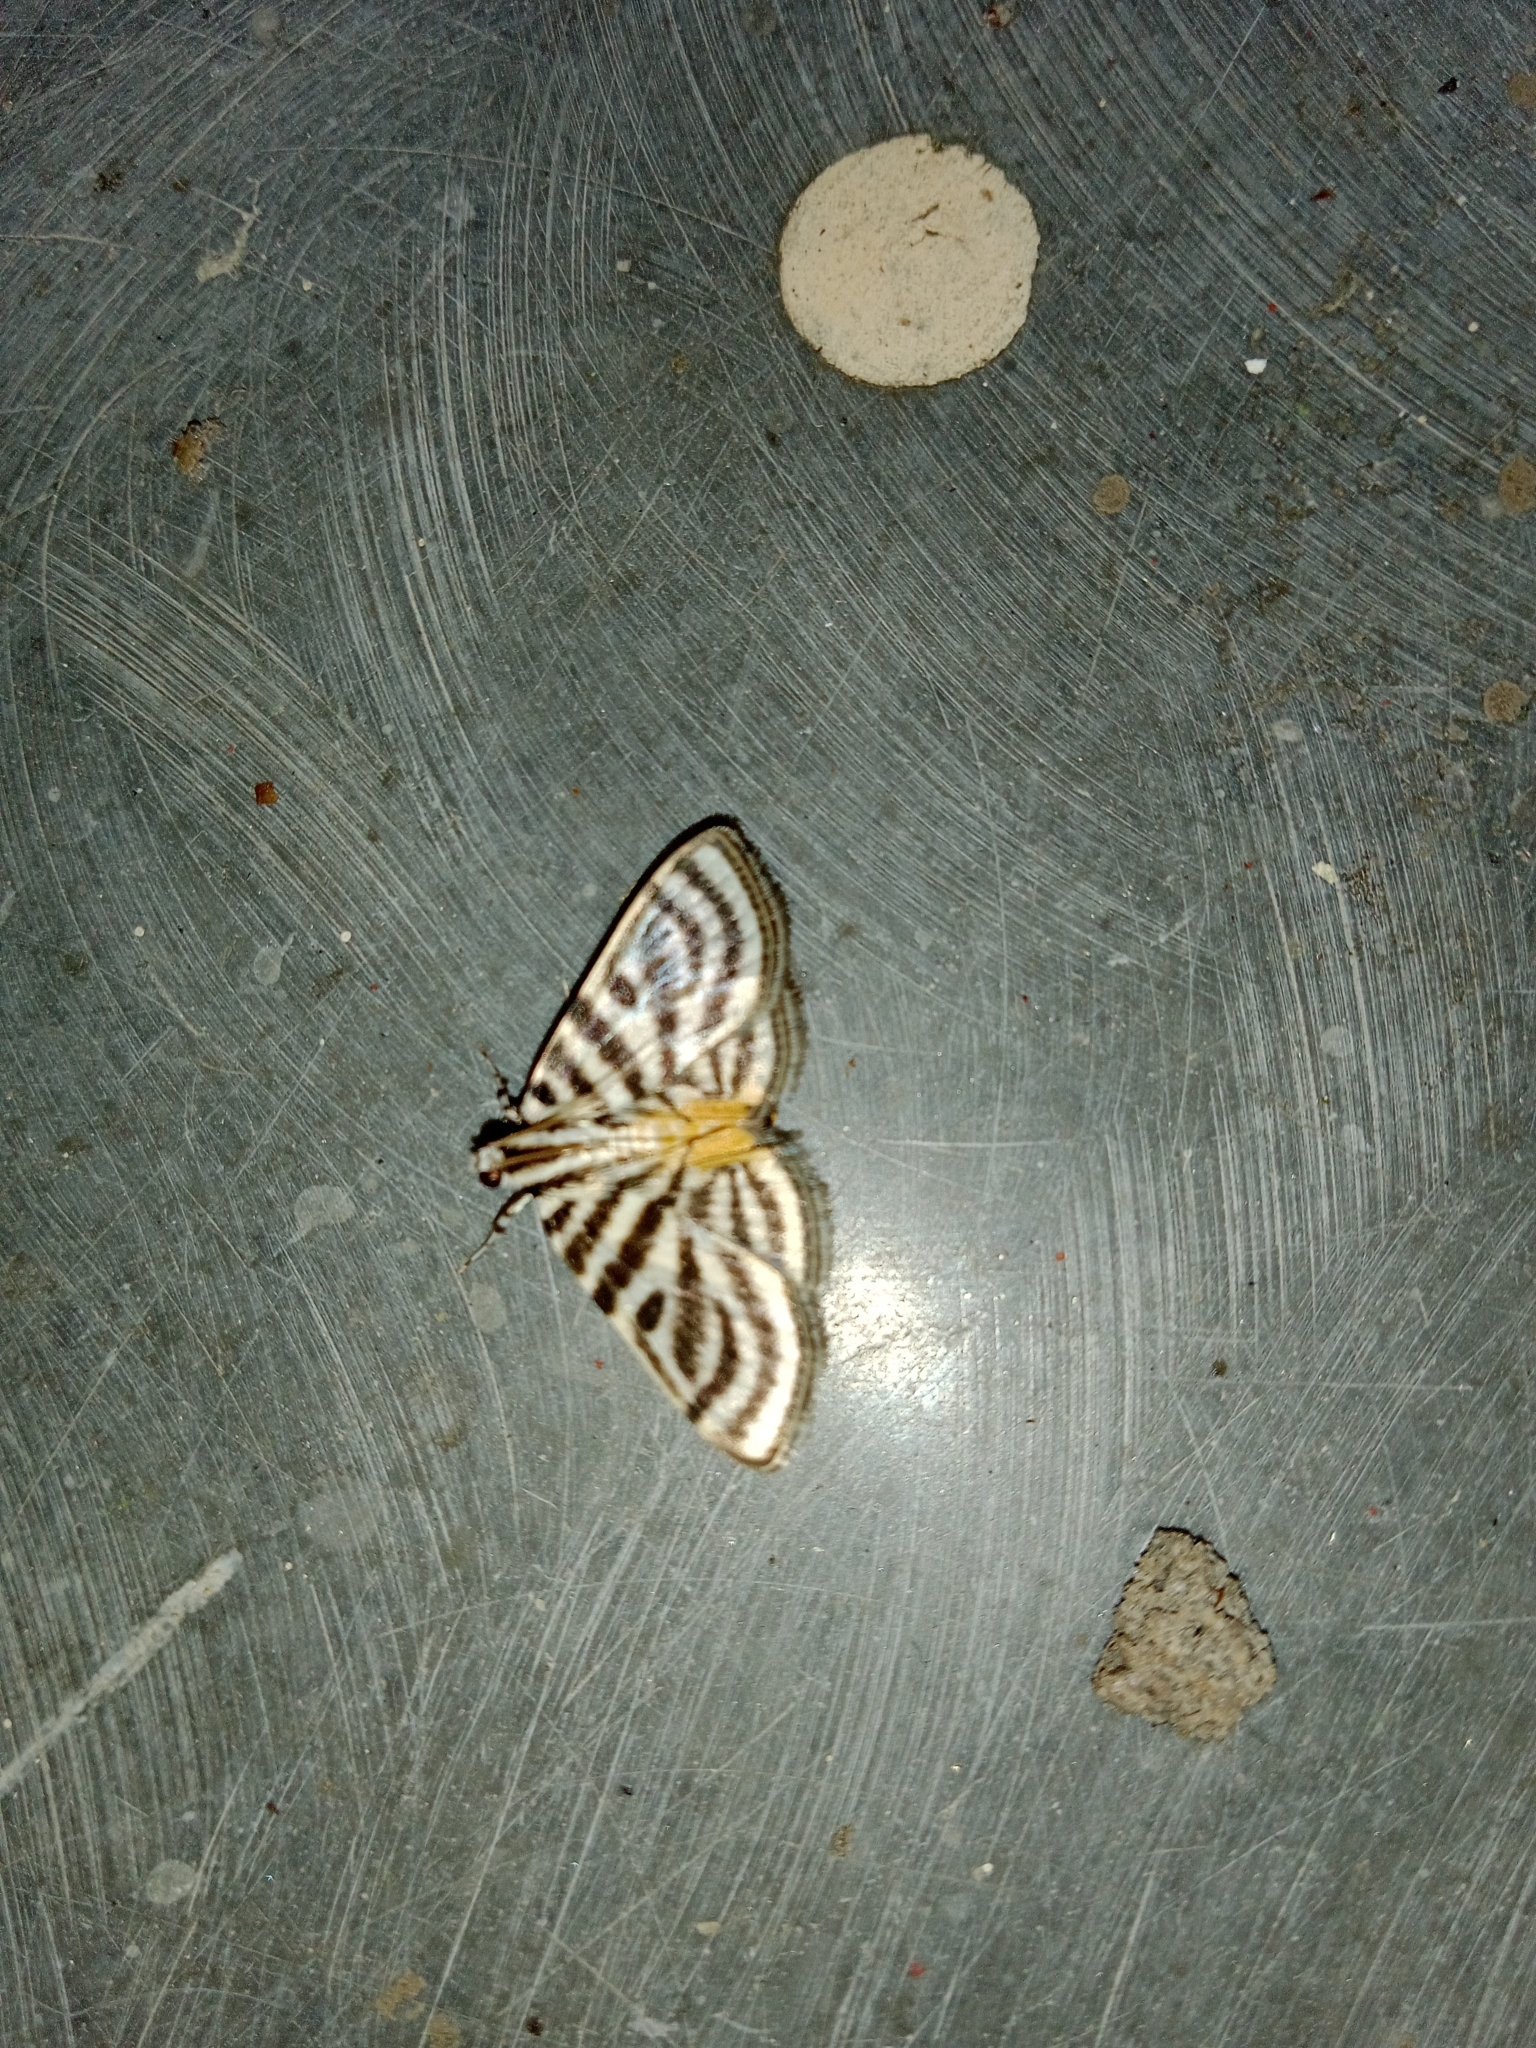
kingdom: Animalia
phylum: Arthropoda
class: Insecta
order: Lepidoptera
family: Crambidae
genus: Dichocrocis
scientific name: Dichocrocis rigidalis
